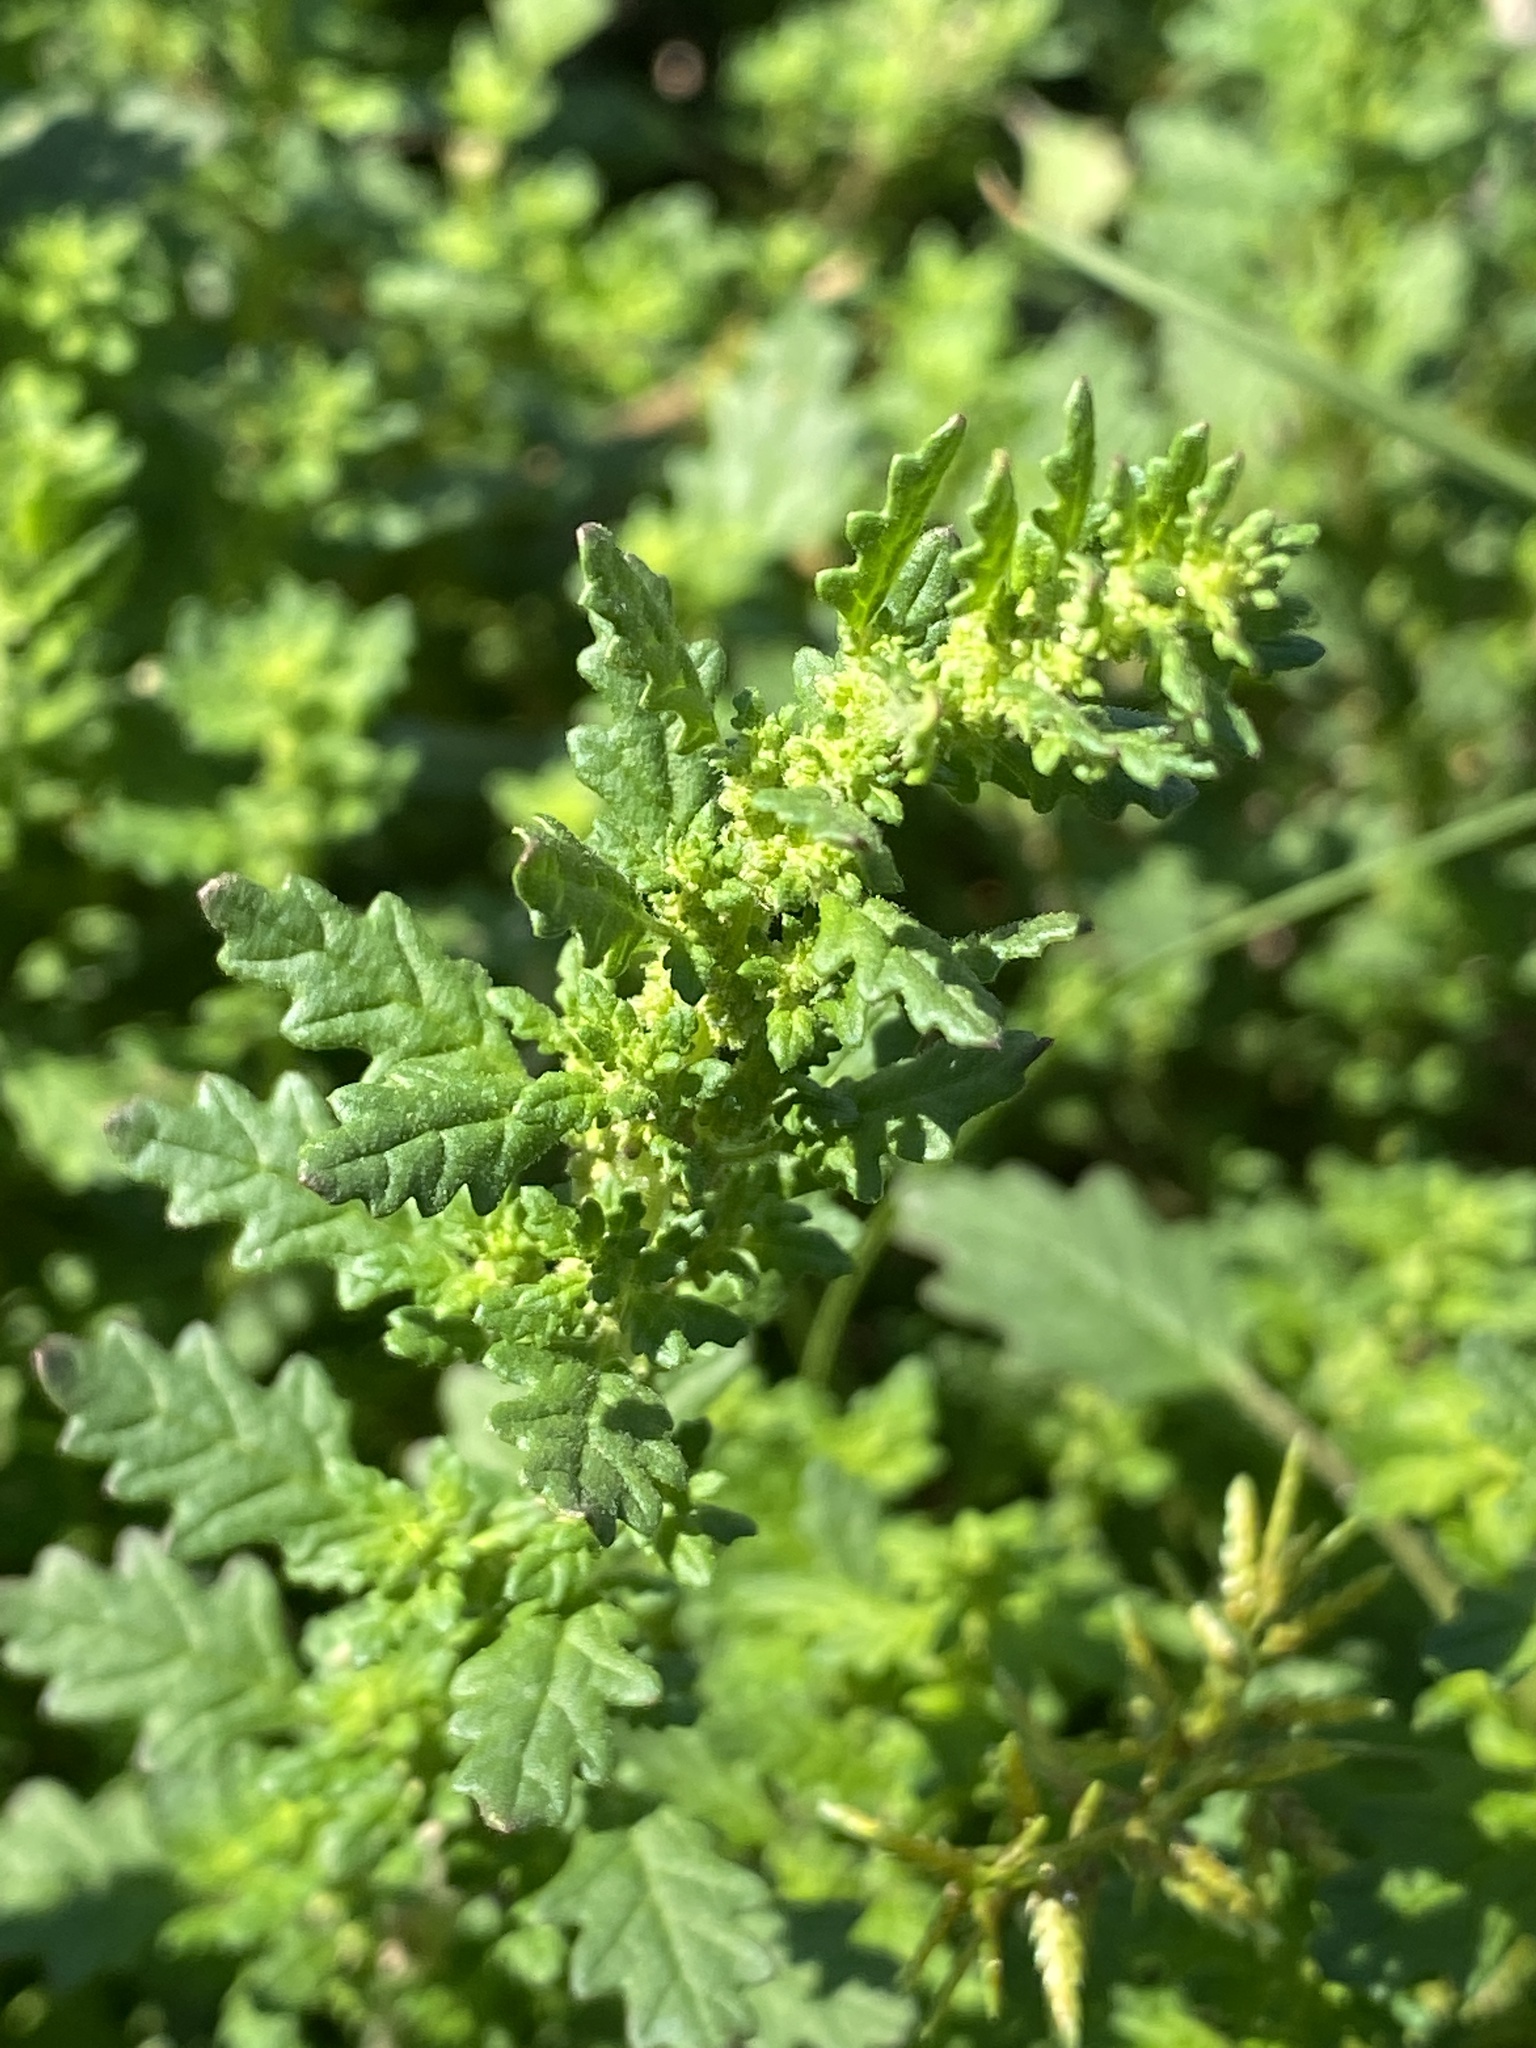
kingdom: Plantae
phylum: Tracheophyta
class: Magnoliopsida
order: Caryophyllales
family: Amaranthaceae
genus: Dysphania
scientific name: Dysphania pumilio
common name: Clammy goosefoot
